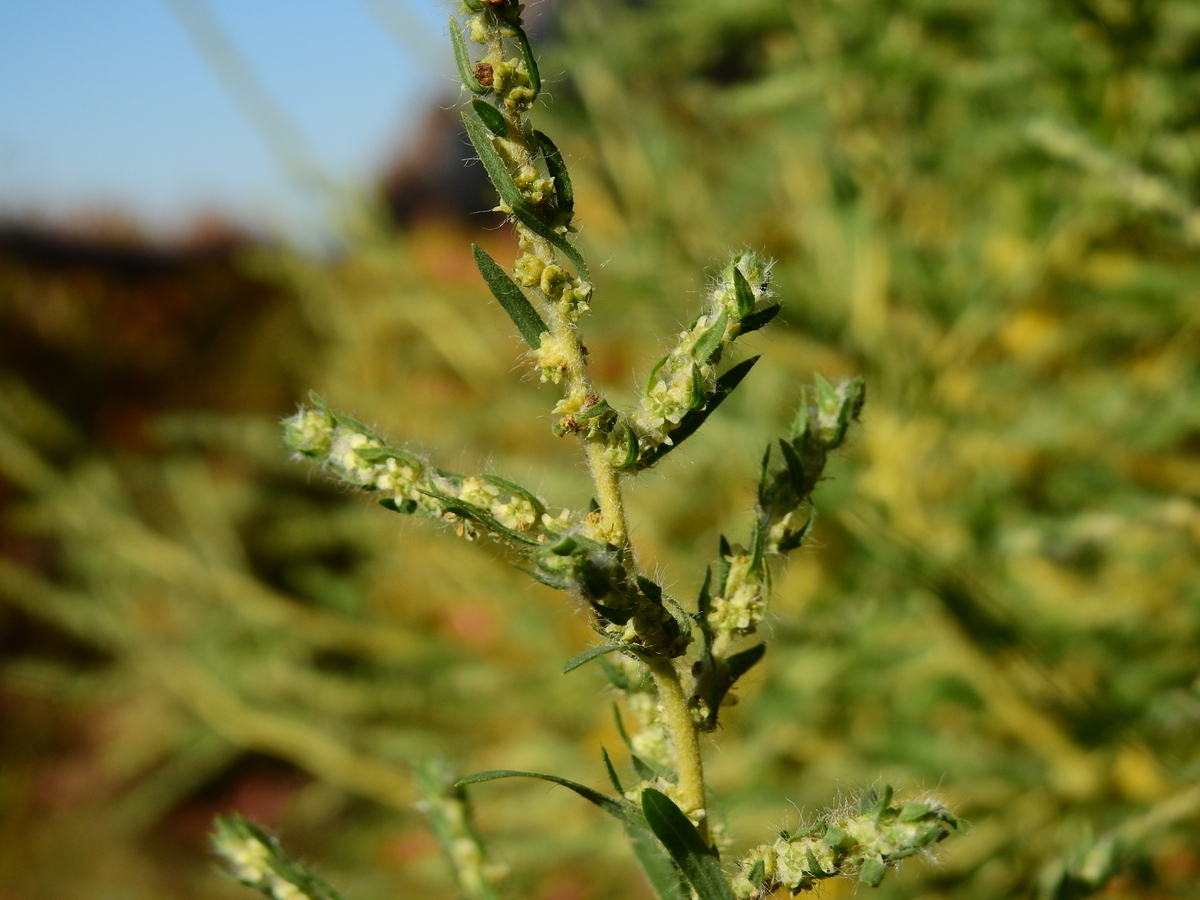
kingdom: Plantae
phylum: Tracheophyta
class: Magnoliopsida
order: Caryophyllales
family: Amaranthaceae
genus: Bassia
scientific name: Bassia scoparia
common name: Belvedere
